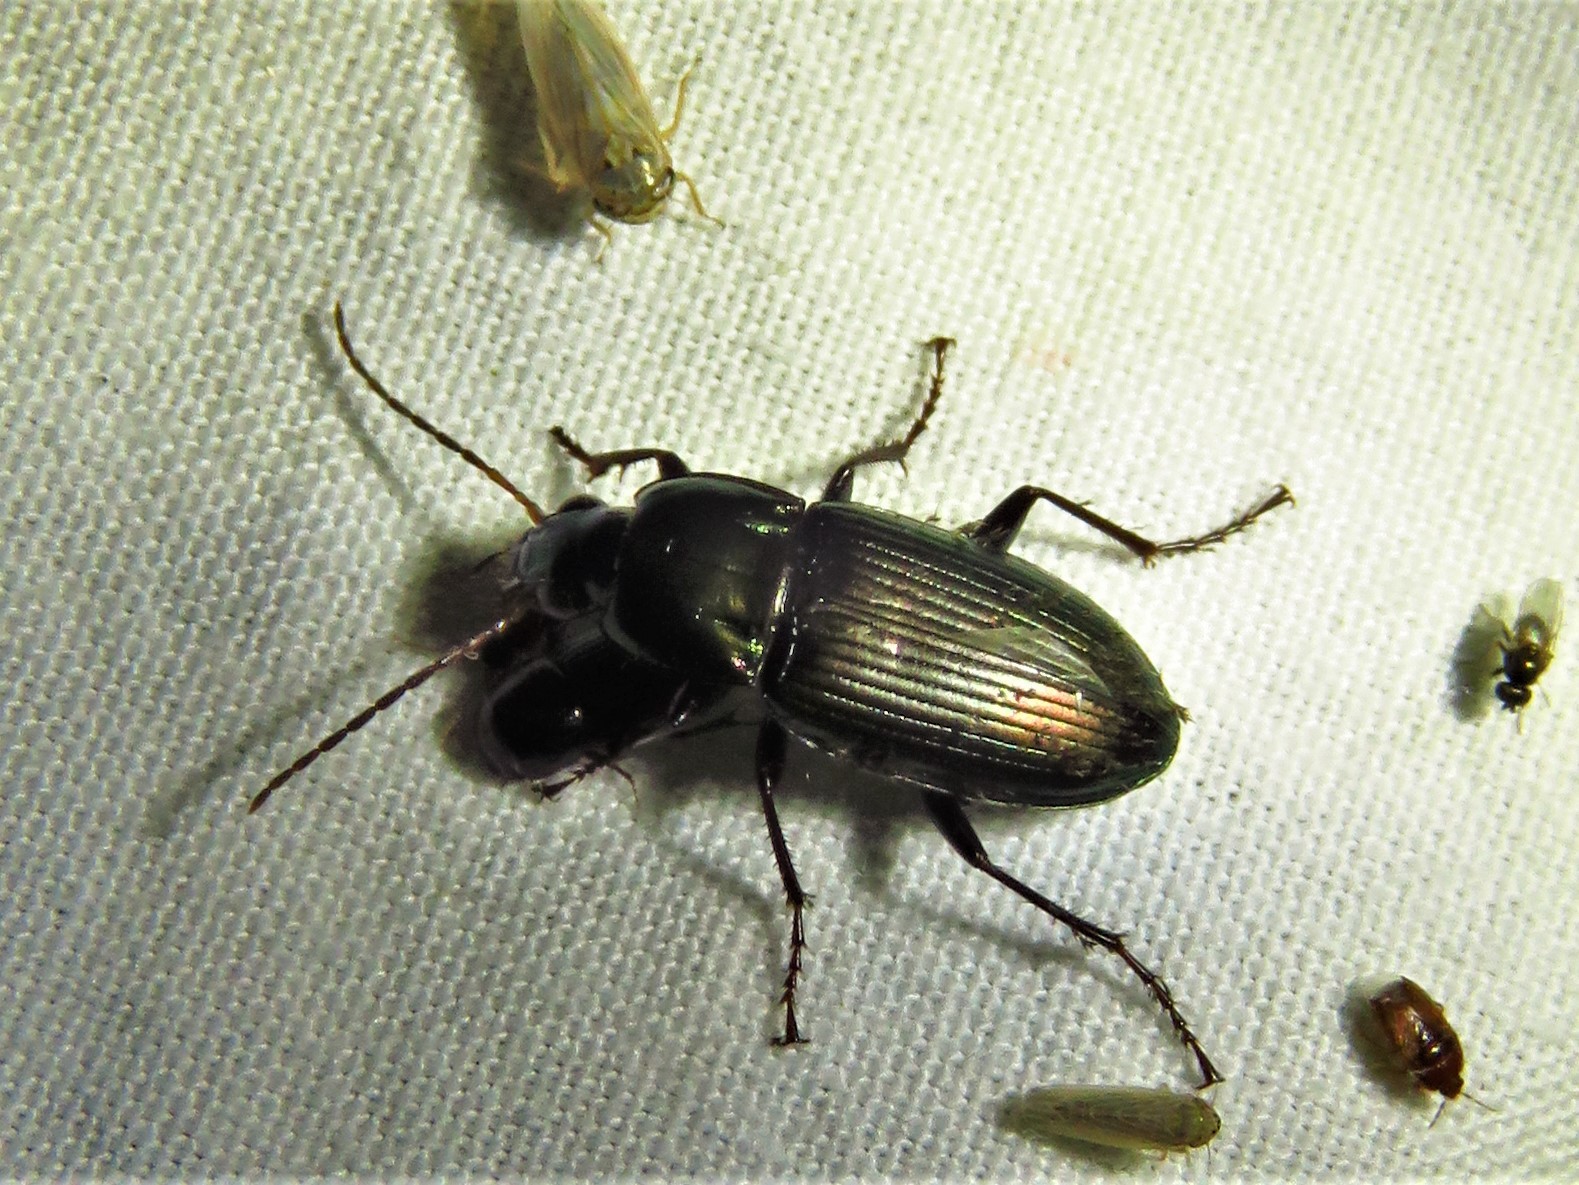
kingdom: Animalia
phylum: Arthropoda
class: Insecta
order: Coleoptera
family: Carabidae
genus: Poecilus
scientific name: Poecilus chalcites
